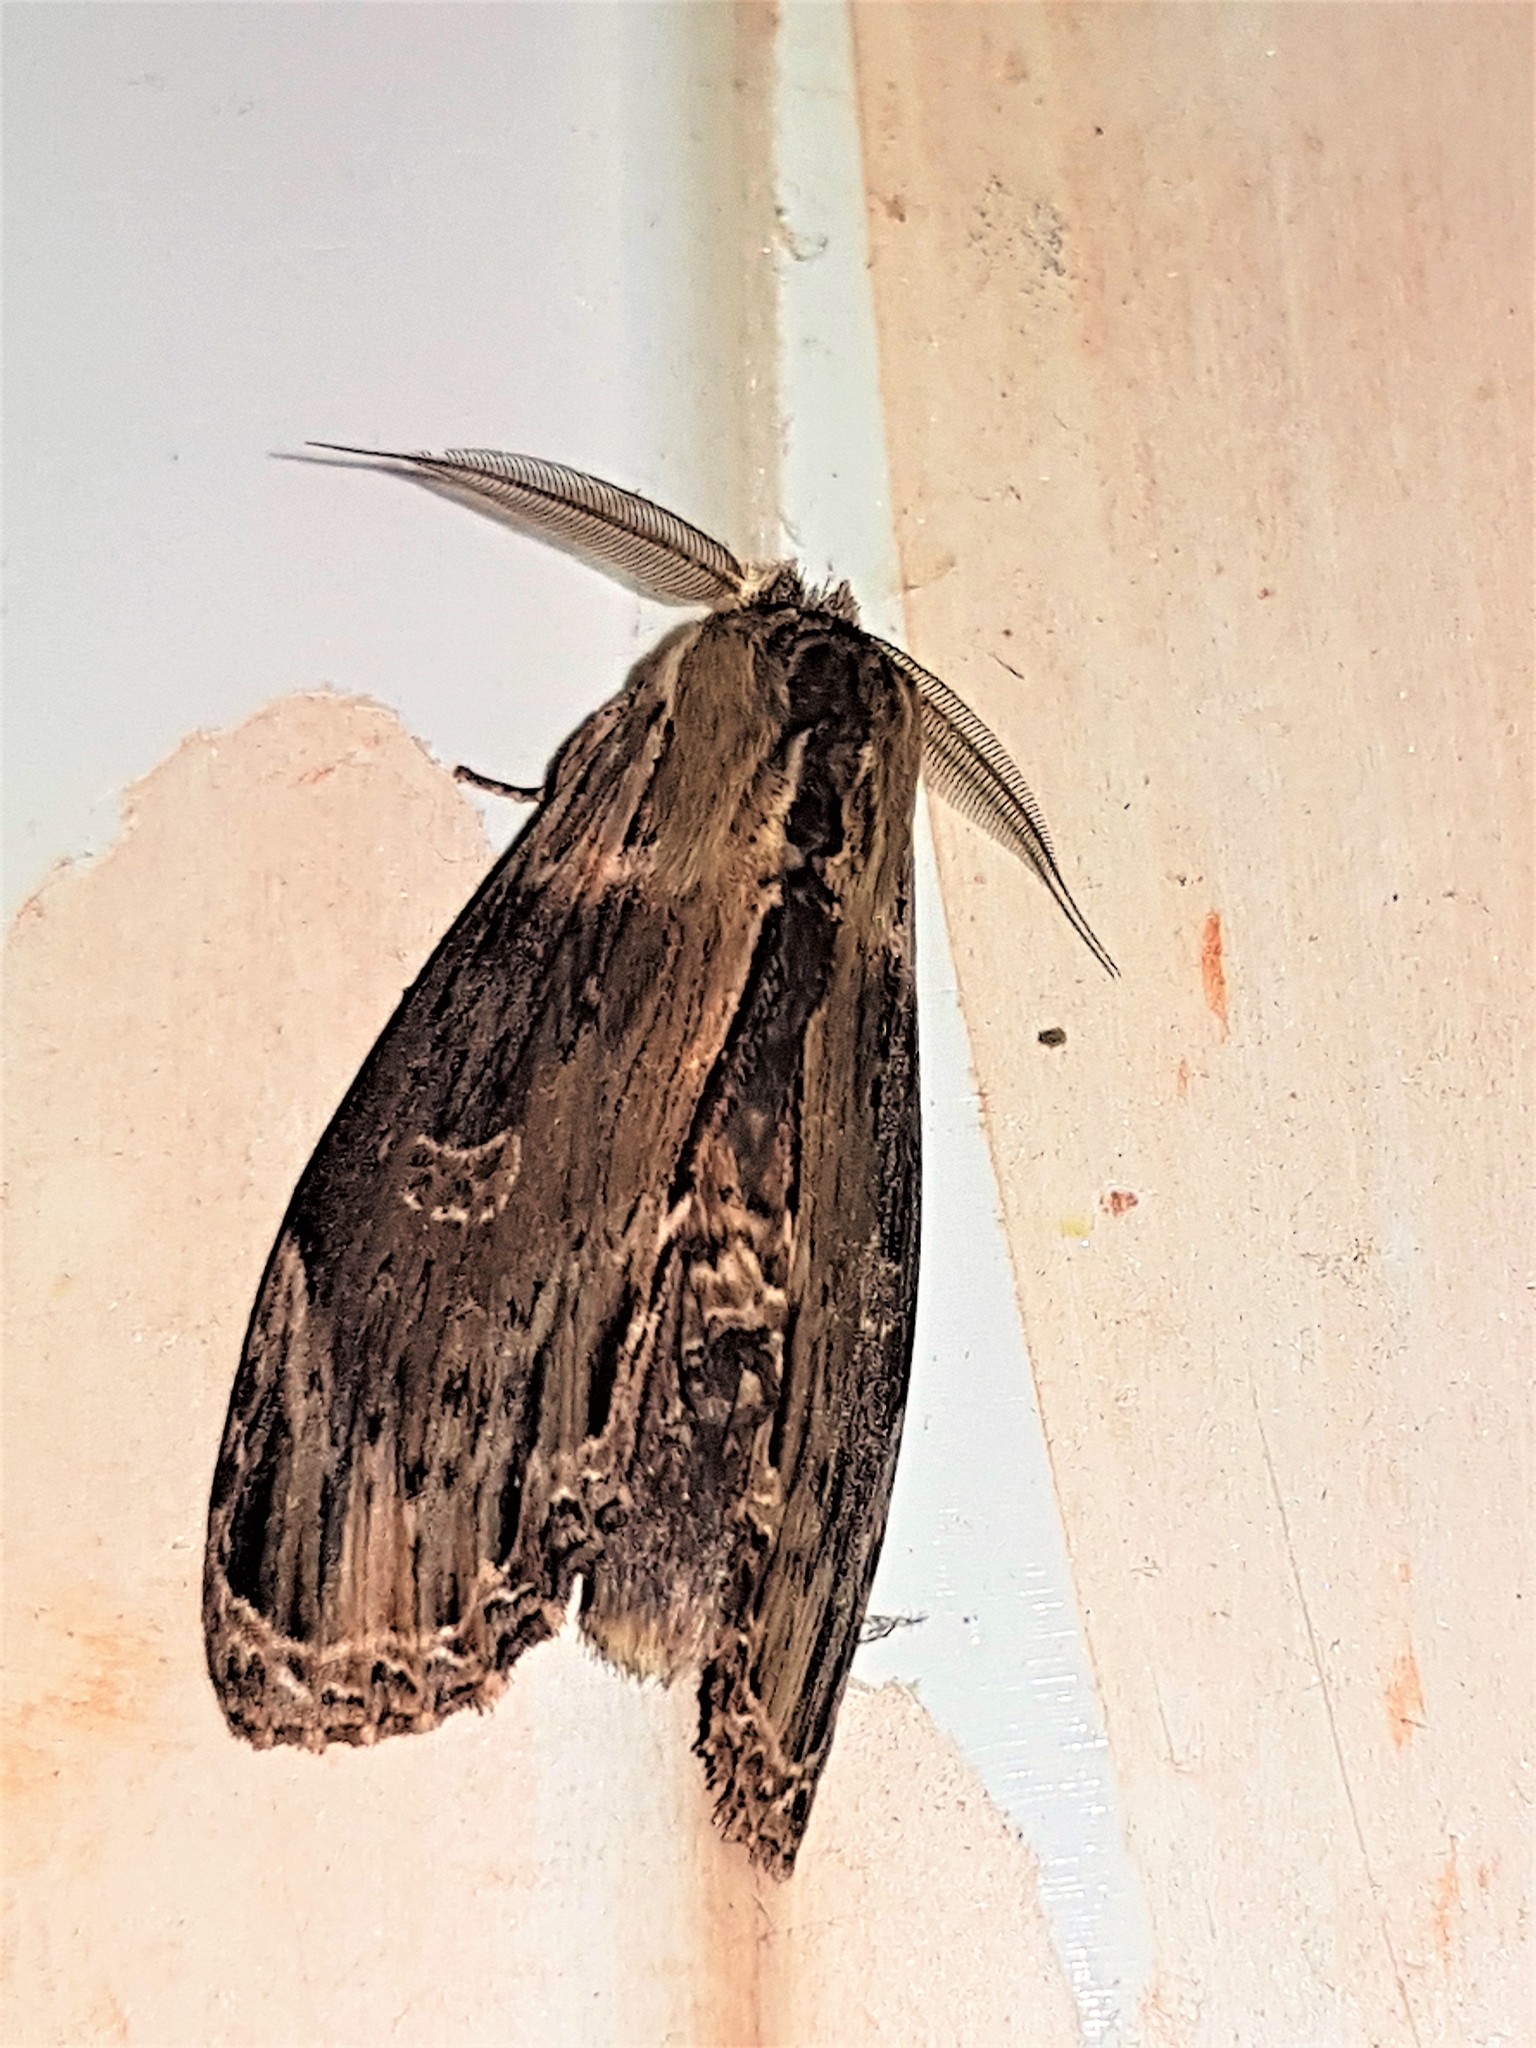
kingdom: Animalia
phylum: Arthropoda
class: Insecta
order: Lepidoptera
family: Notodontidae
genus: Truncaptera
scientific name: Truncaptera
